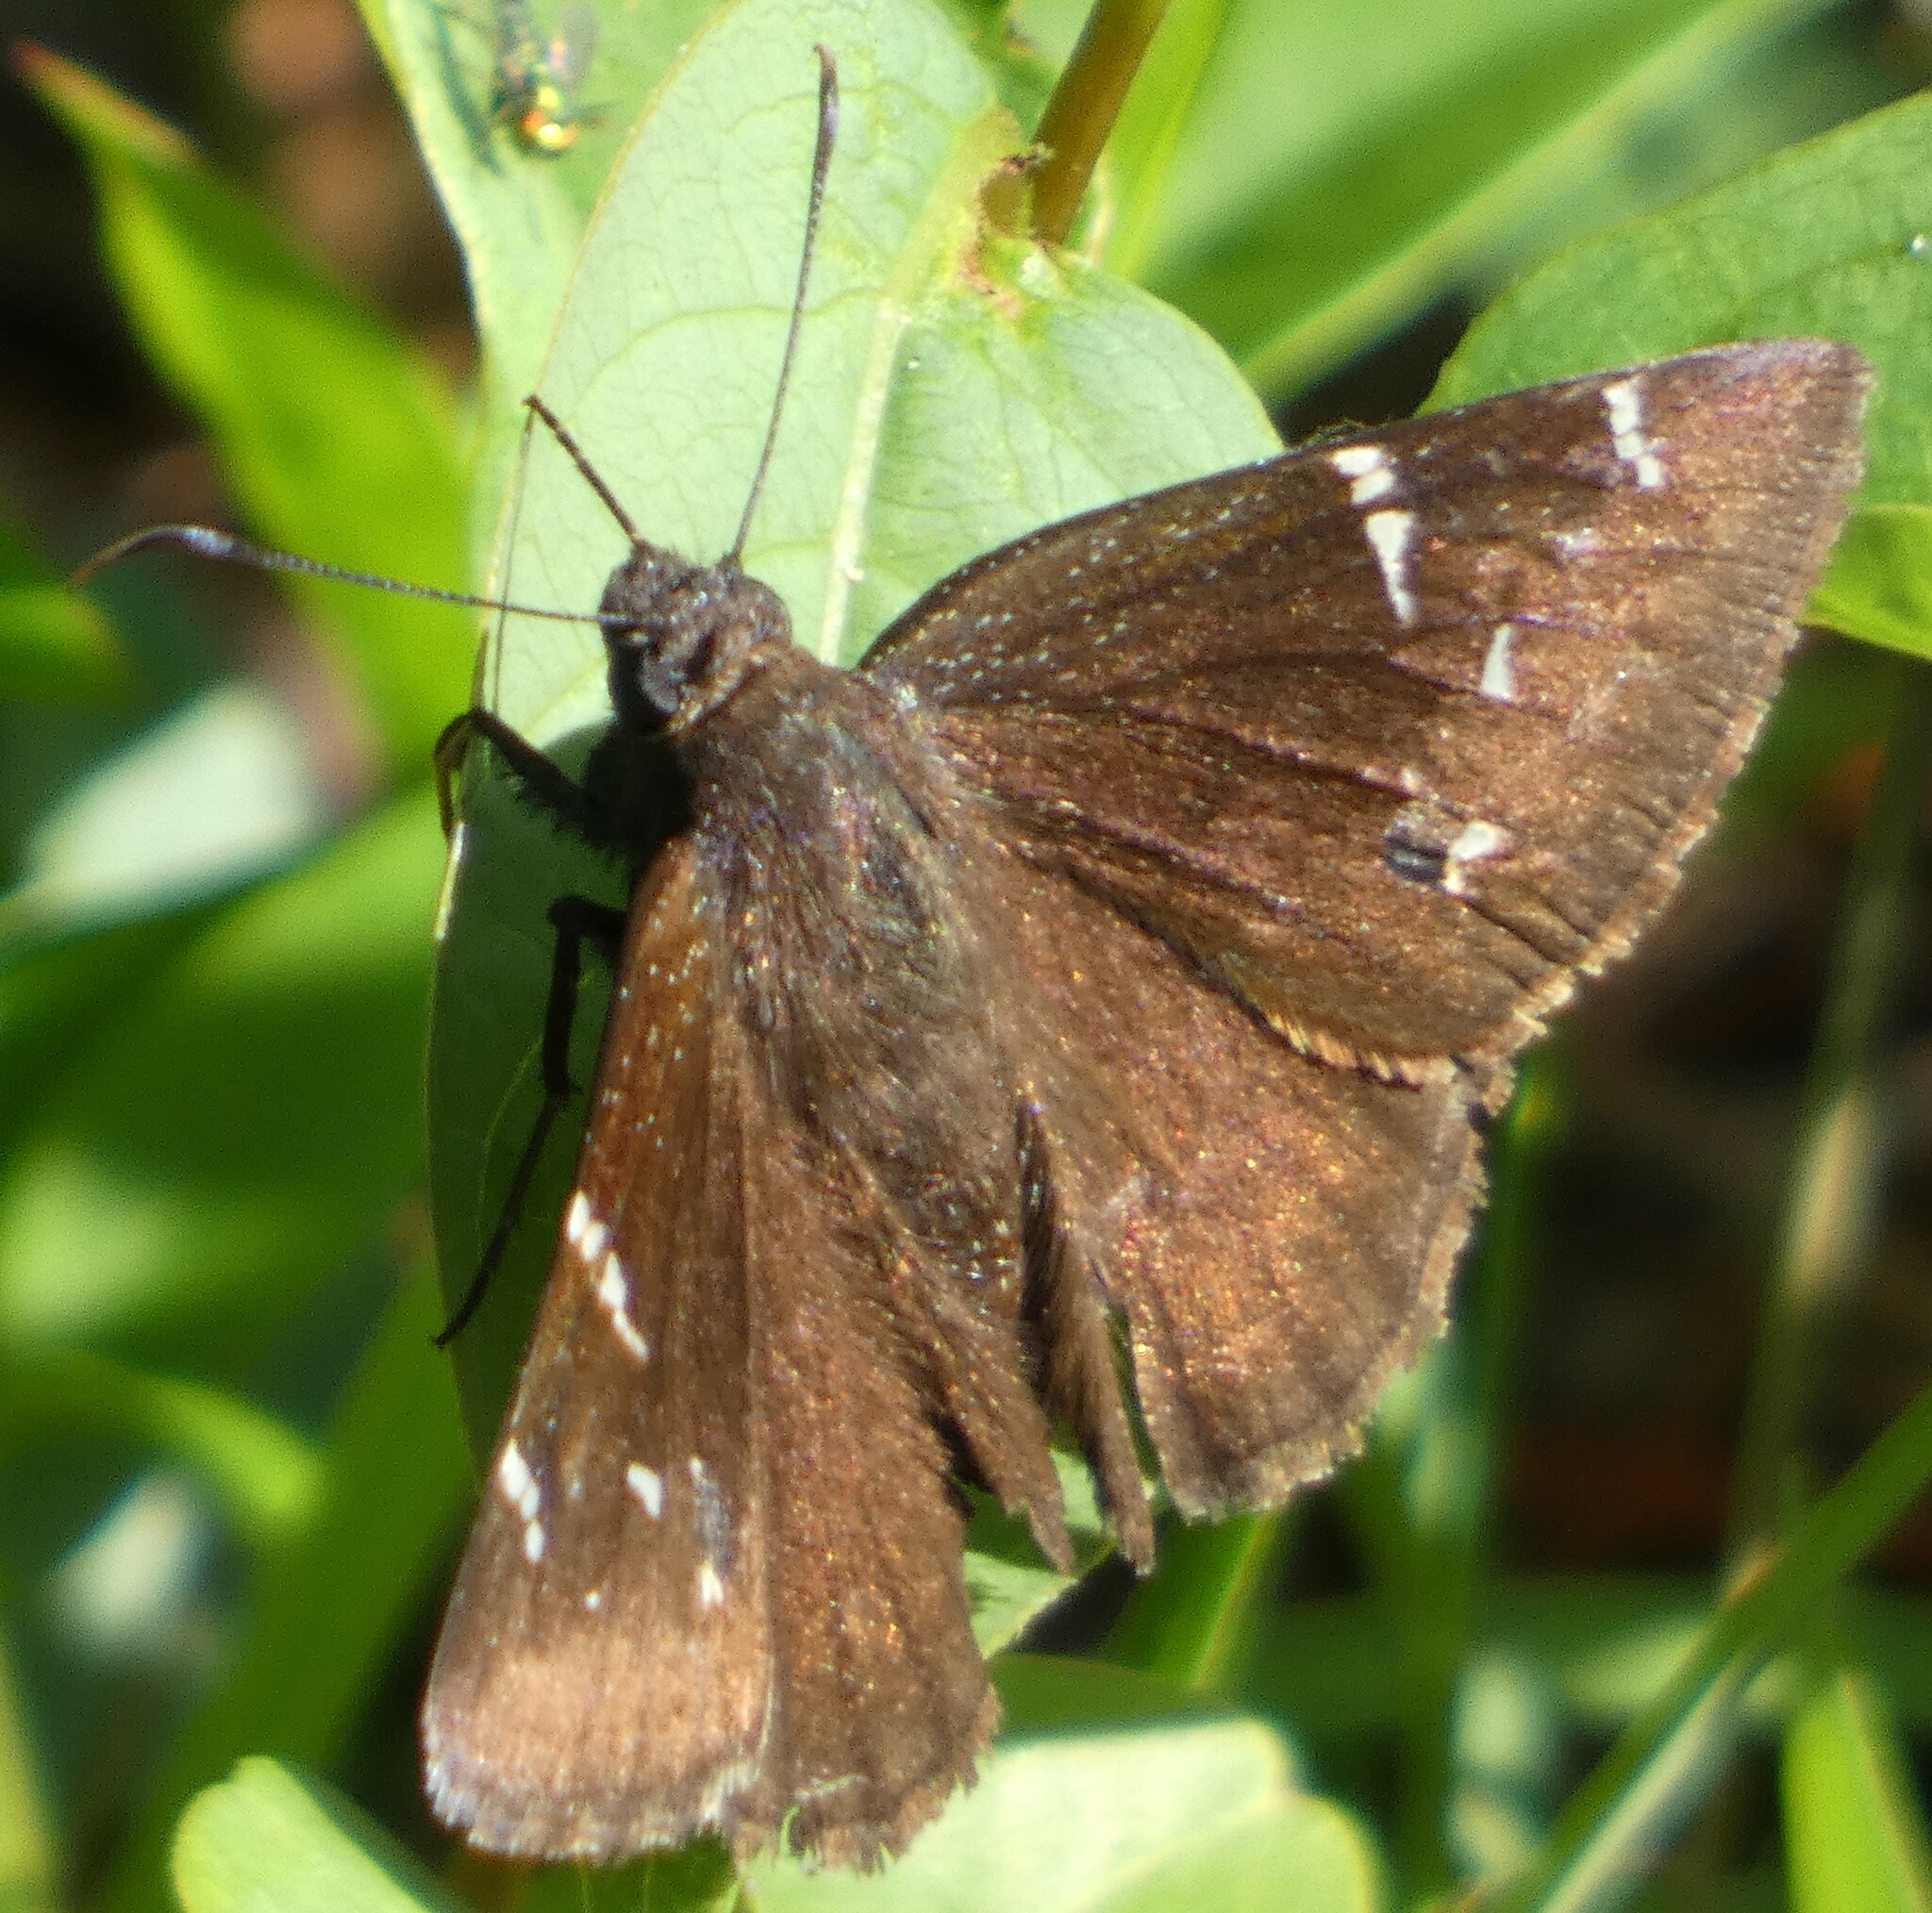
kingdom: Animalia
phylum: Arthropoda
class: Insecta
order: Lepidoptera
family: Hesperiidae
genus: Thorybes
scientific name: Thorybes pylades
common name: Northern cloudywing
